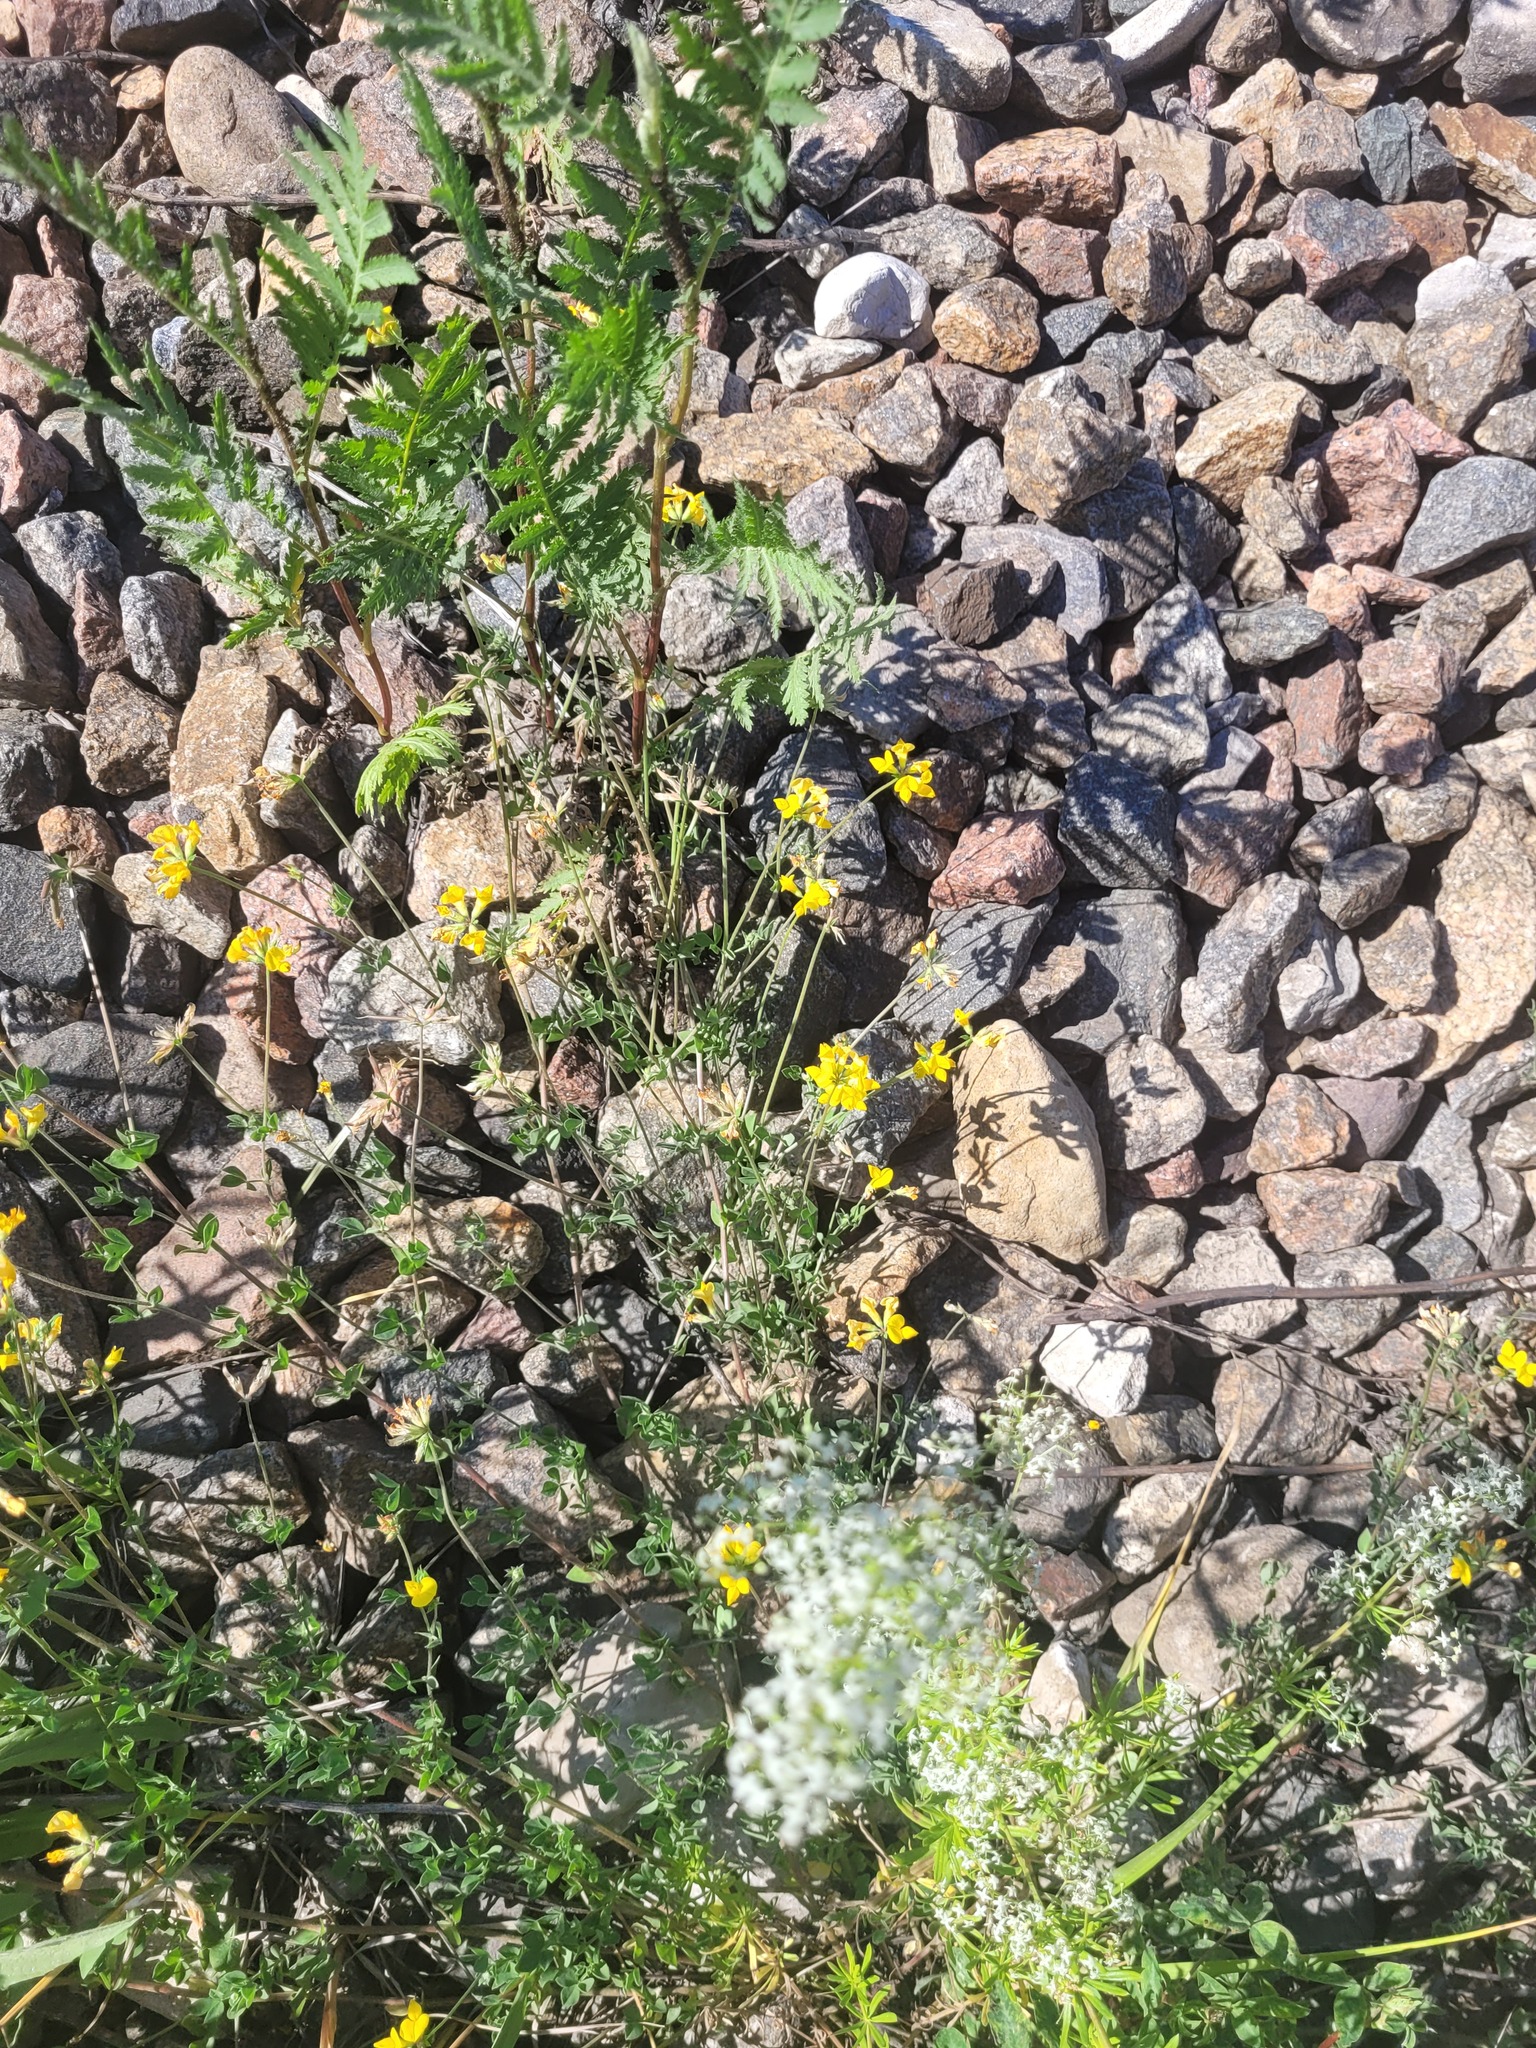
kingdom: Plantae
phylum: Tracheophyta
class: Magnoliopsida
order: Fabales
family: Fabaceae
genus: Lotus
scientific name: Lotus corniculatus
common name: Common bird's-foot-trefoil
